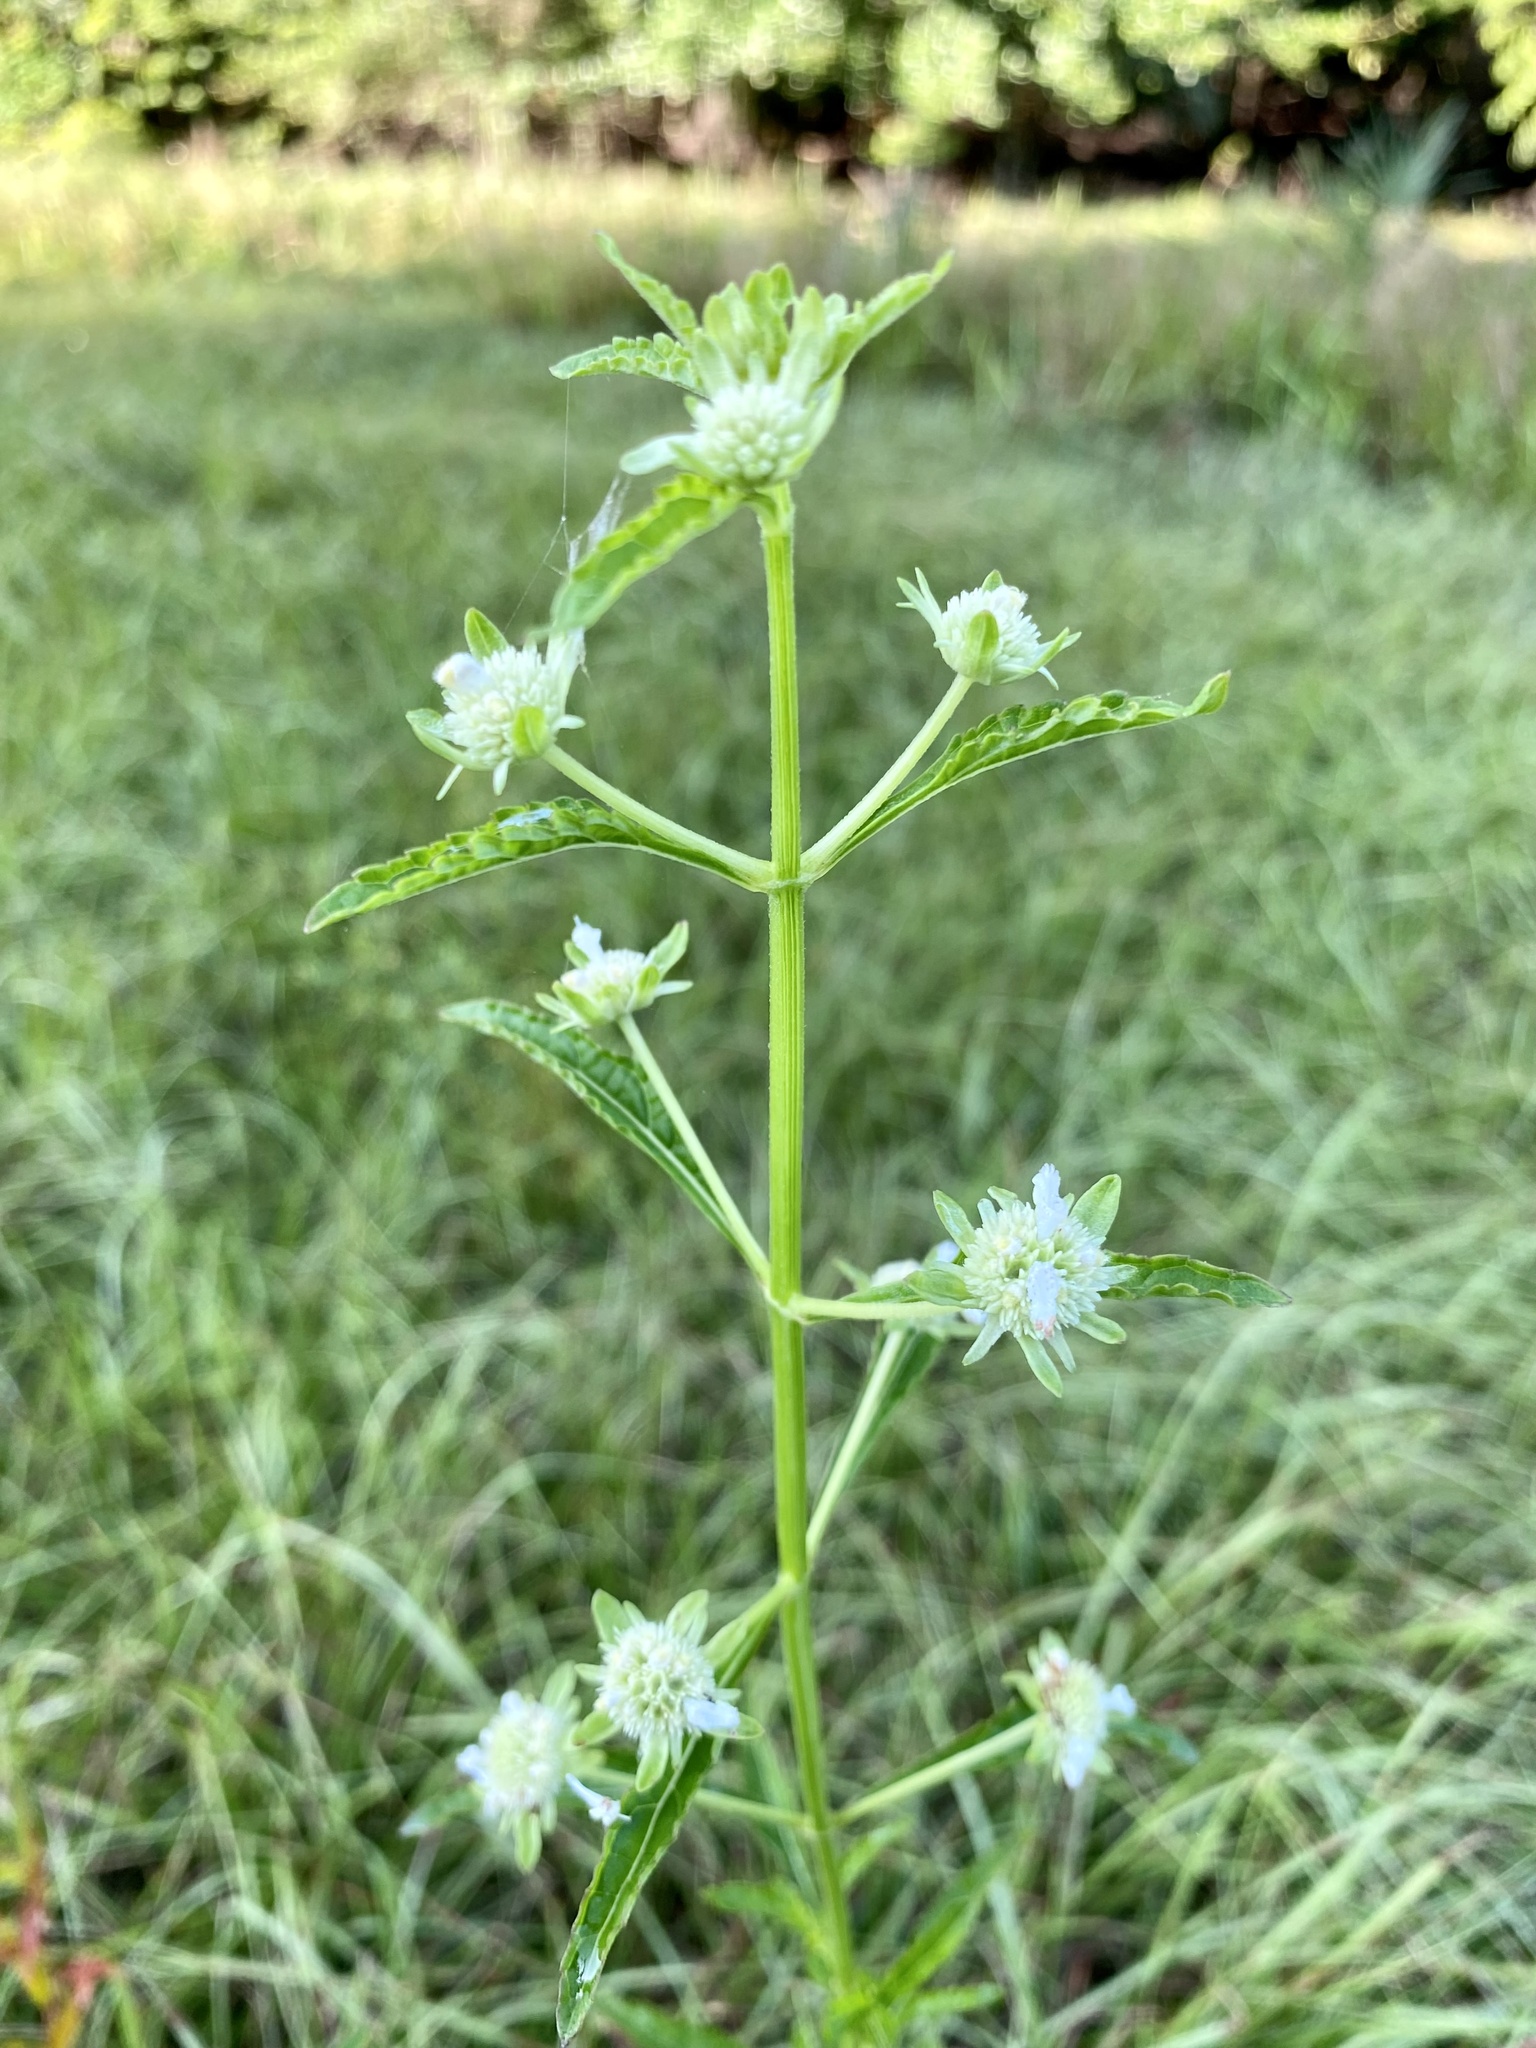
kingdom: Plantae
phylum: Tracheophyta
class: Magnoliopsida
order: Lamiales
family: Lamiaceae
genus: Hyptis
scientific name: Hyptis alata
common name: Cluster bush-mint
